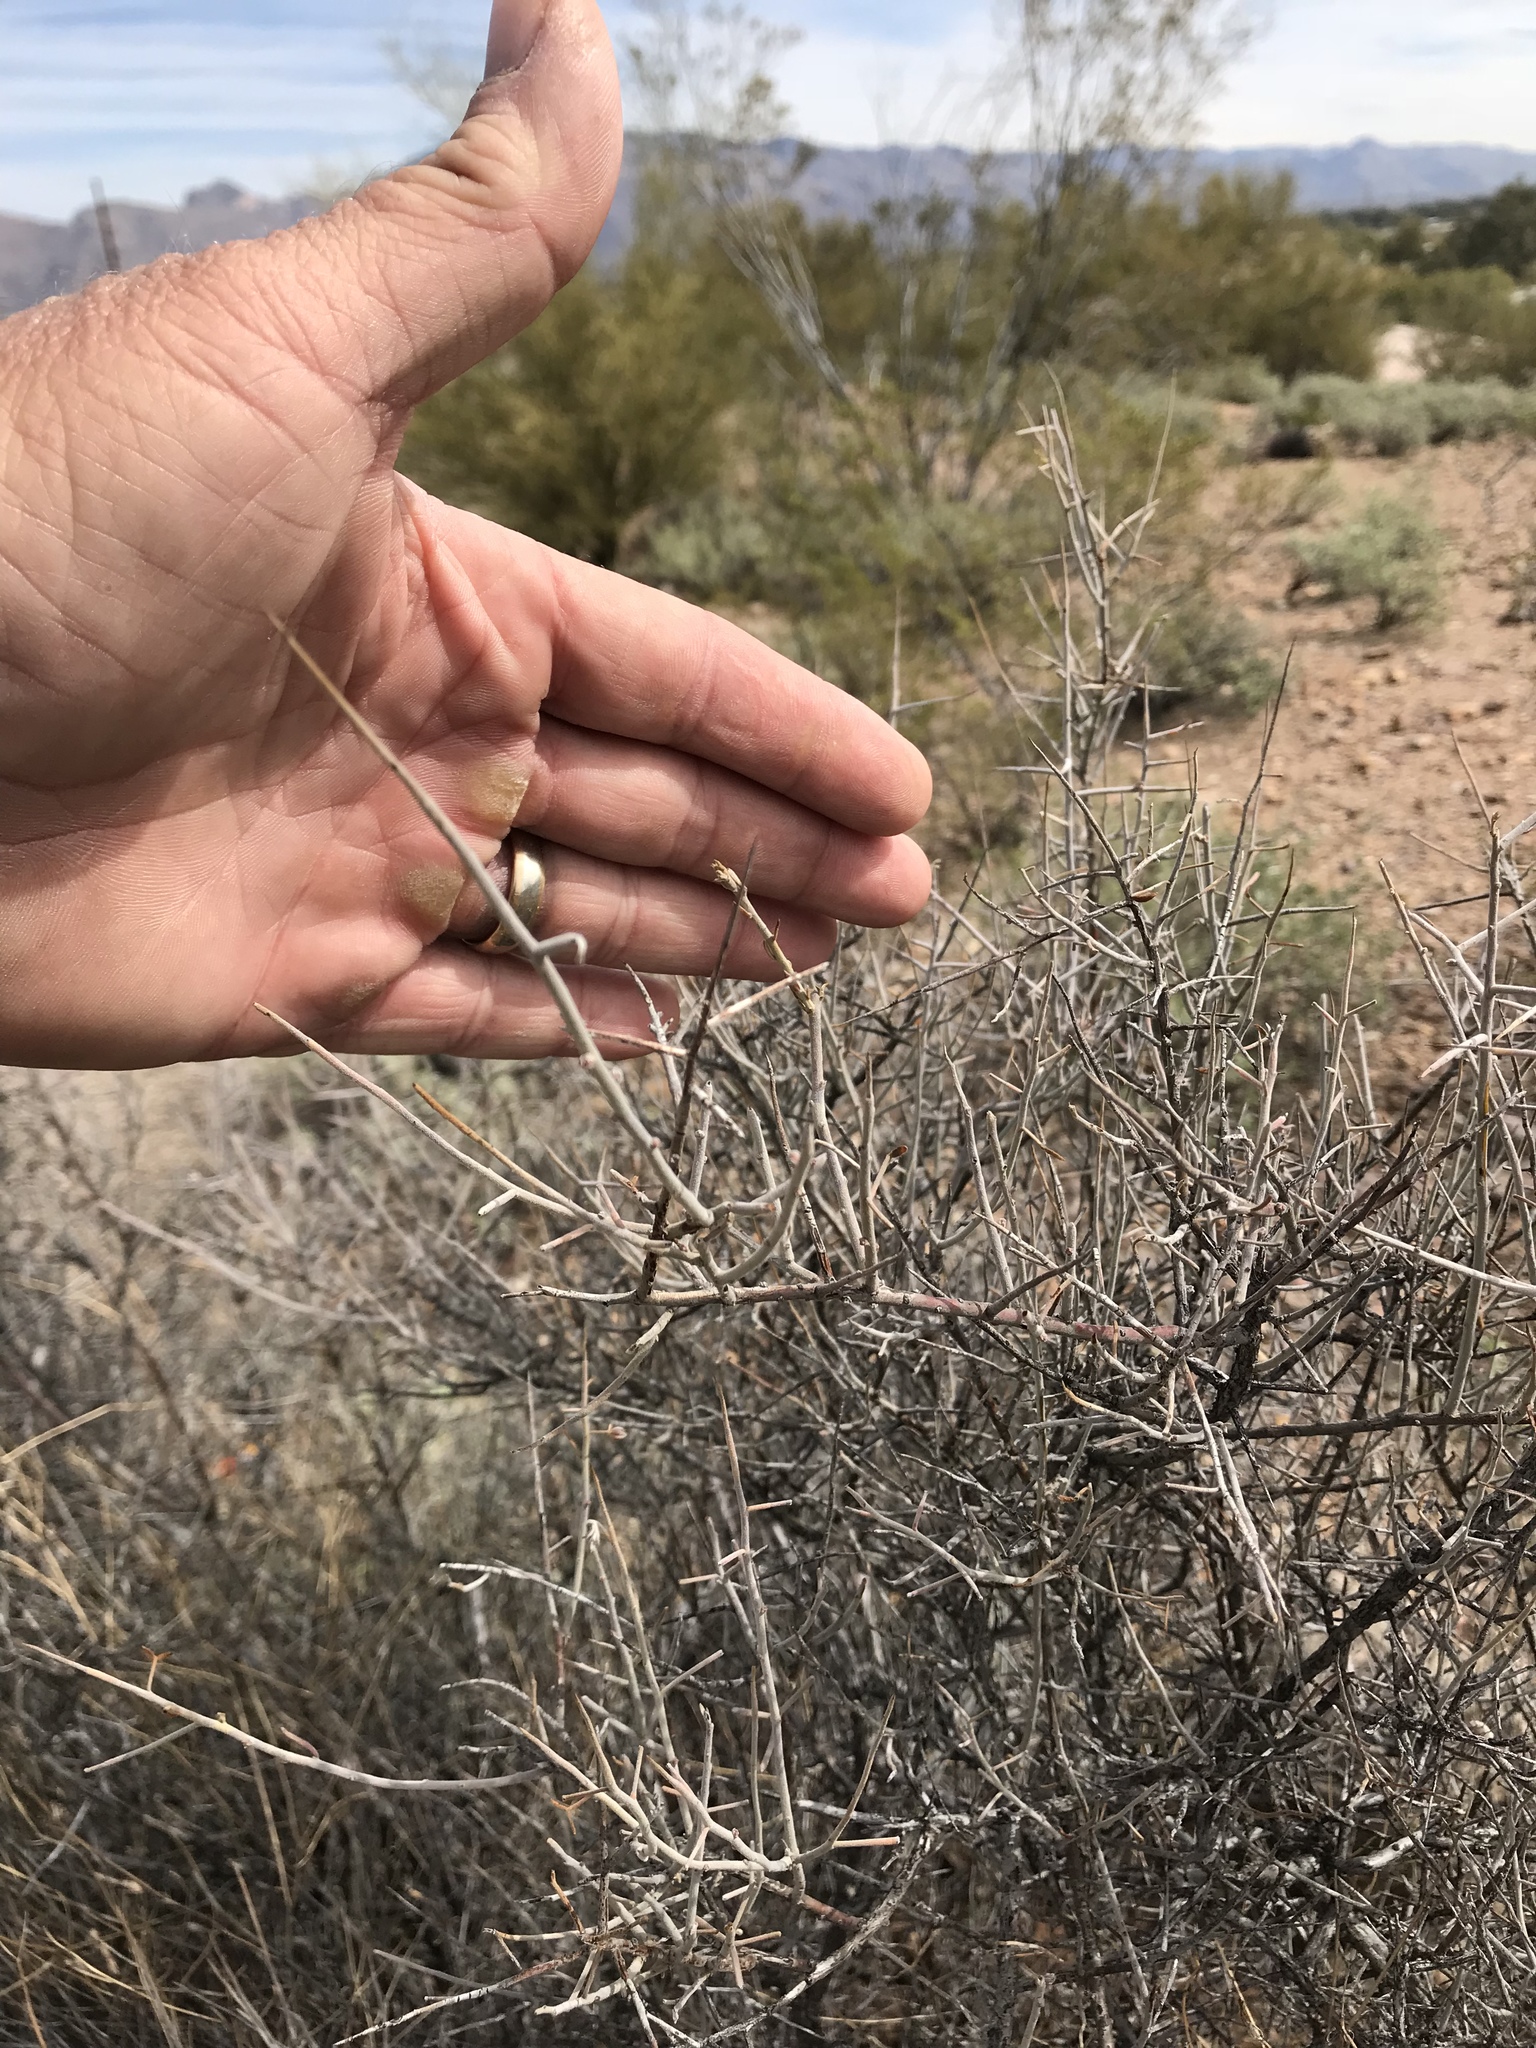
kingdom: Plantae
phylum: Tracheophyta
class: Magnoliopsida
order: Zygophyllales
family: Krameriaceae
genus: Krameria
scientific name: Krameria bicolor
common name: White ratany
